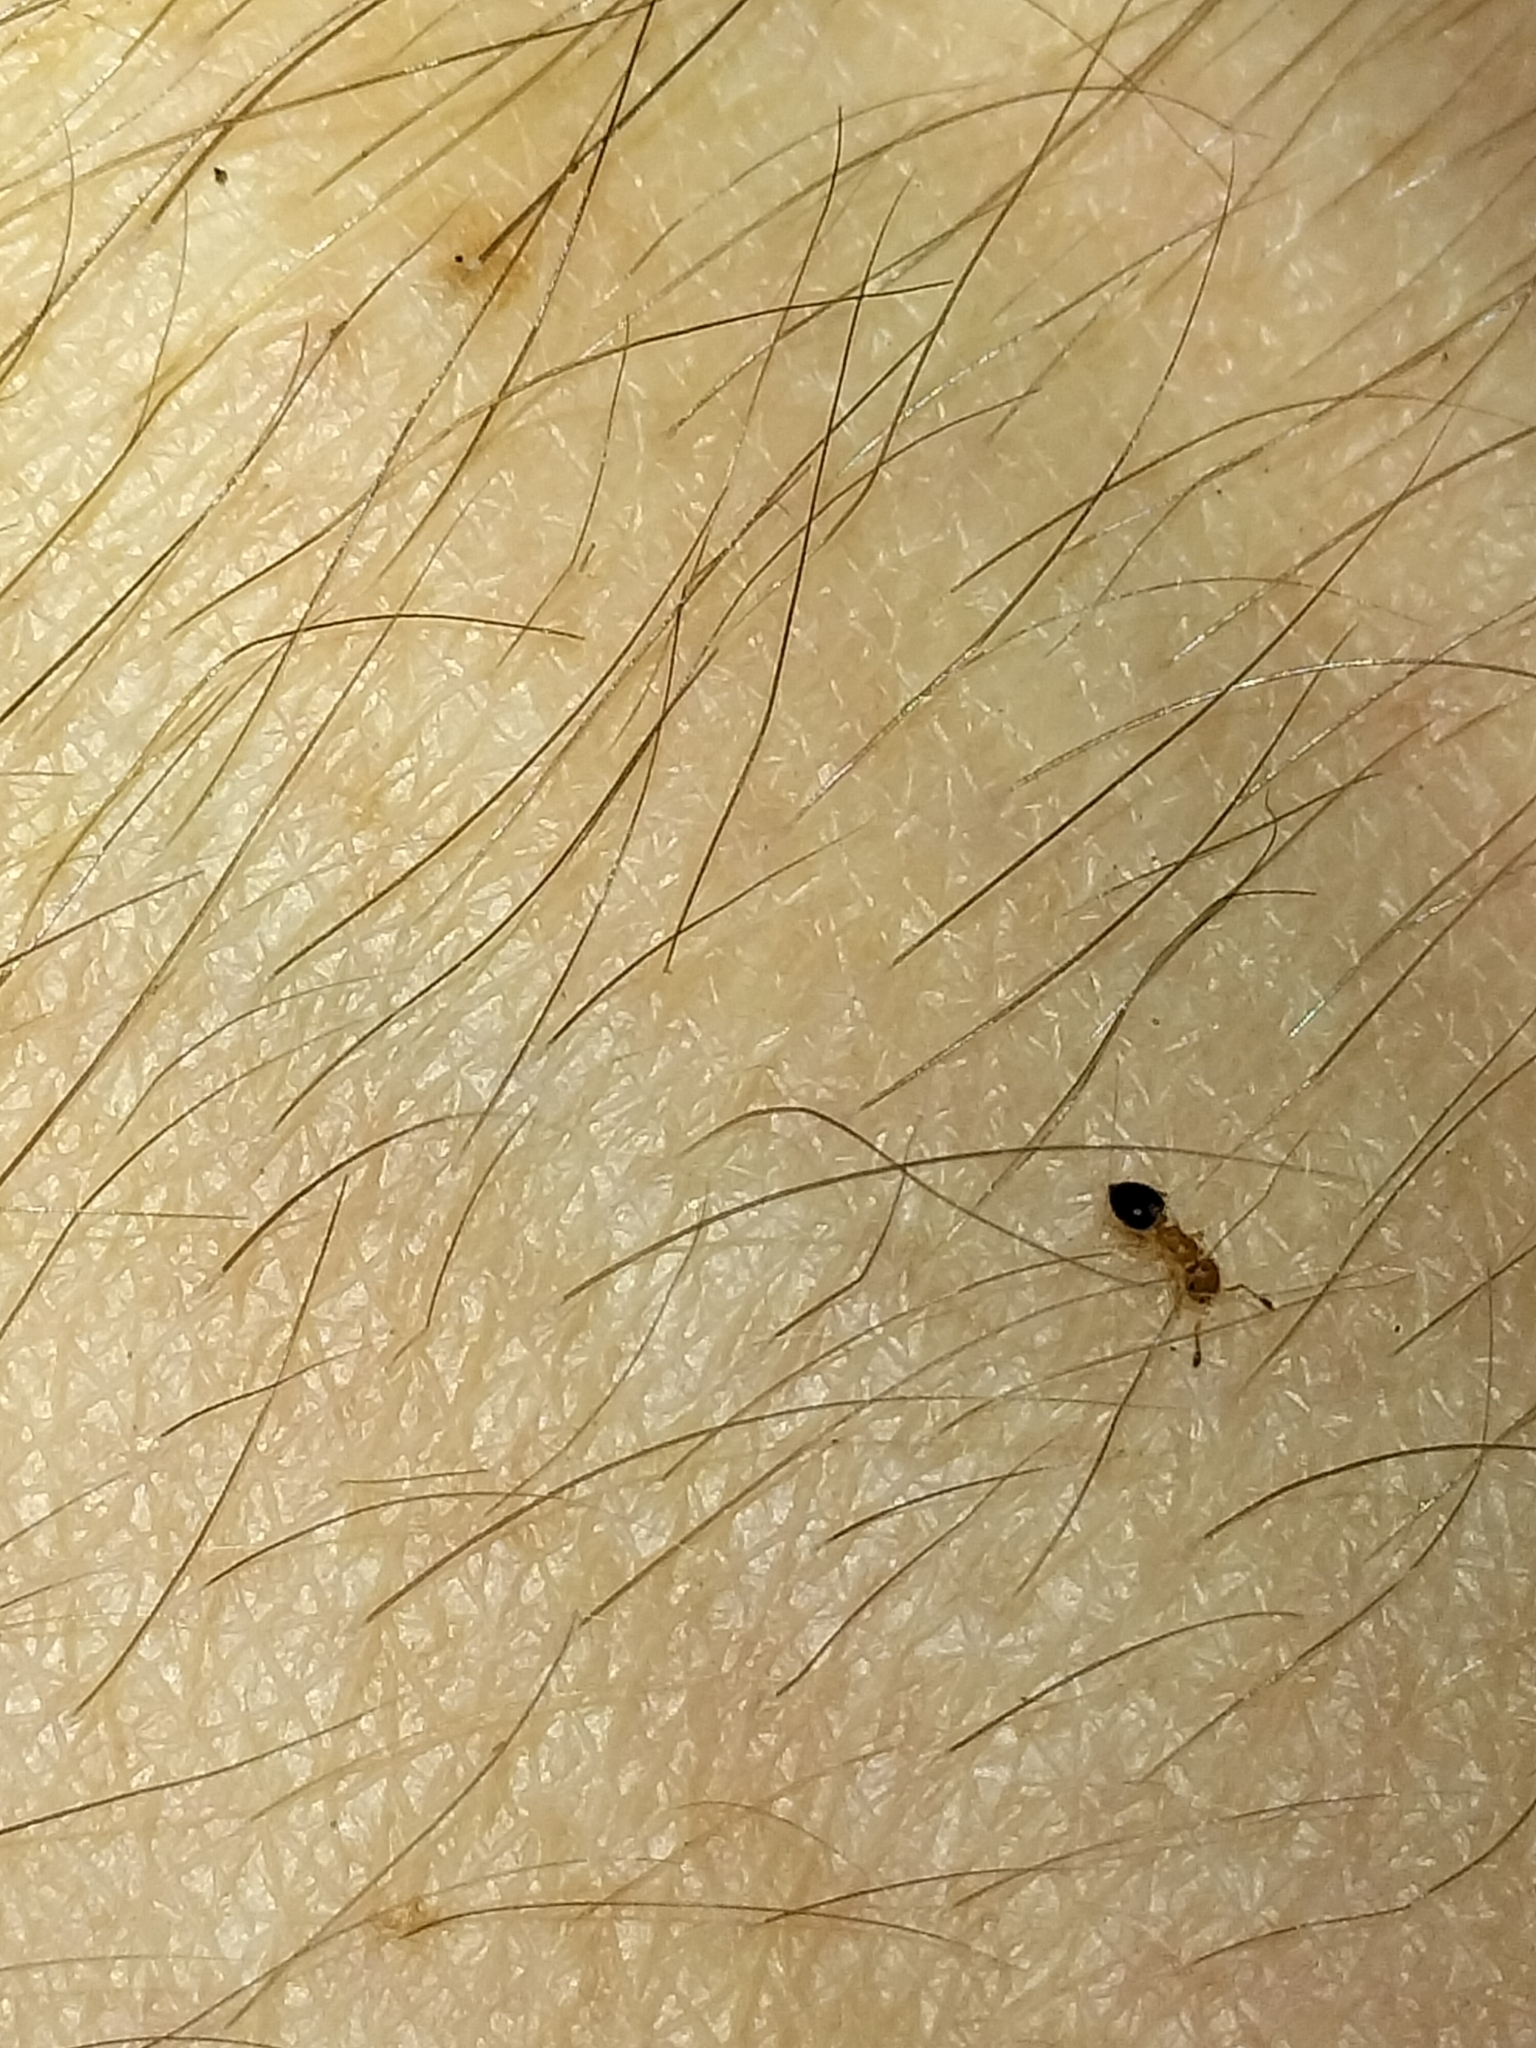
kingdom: Animalia
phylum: Arthropoda
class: Insecta
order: Hymenoptera
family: Formicidae
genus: Crematogaster
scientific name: Crematogaster
